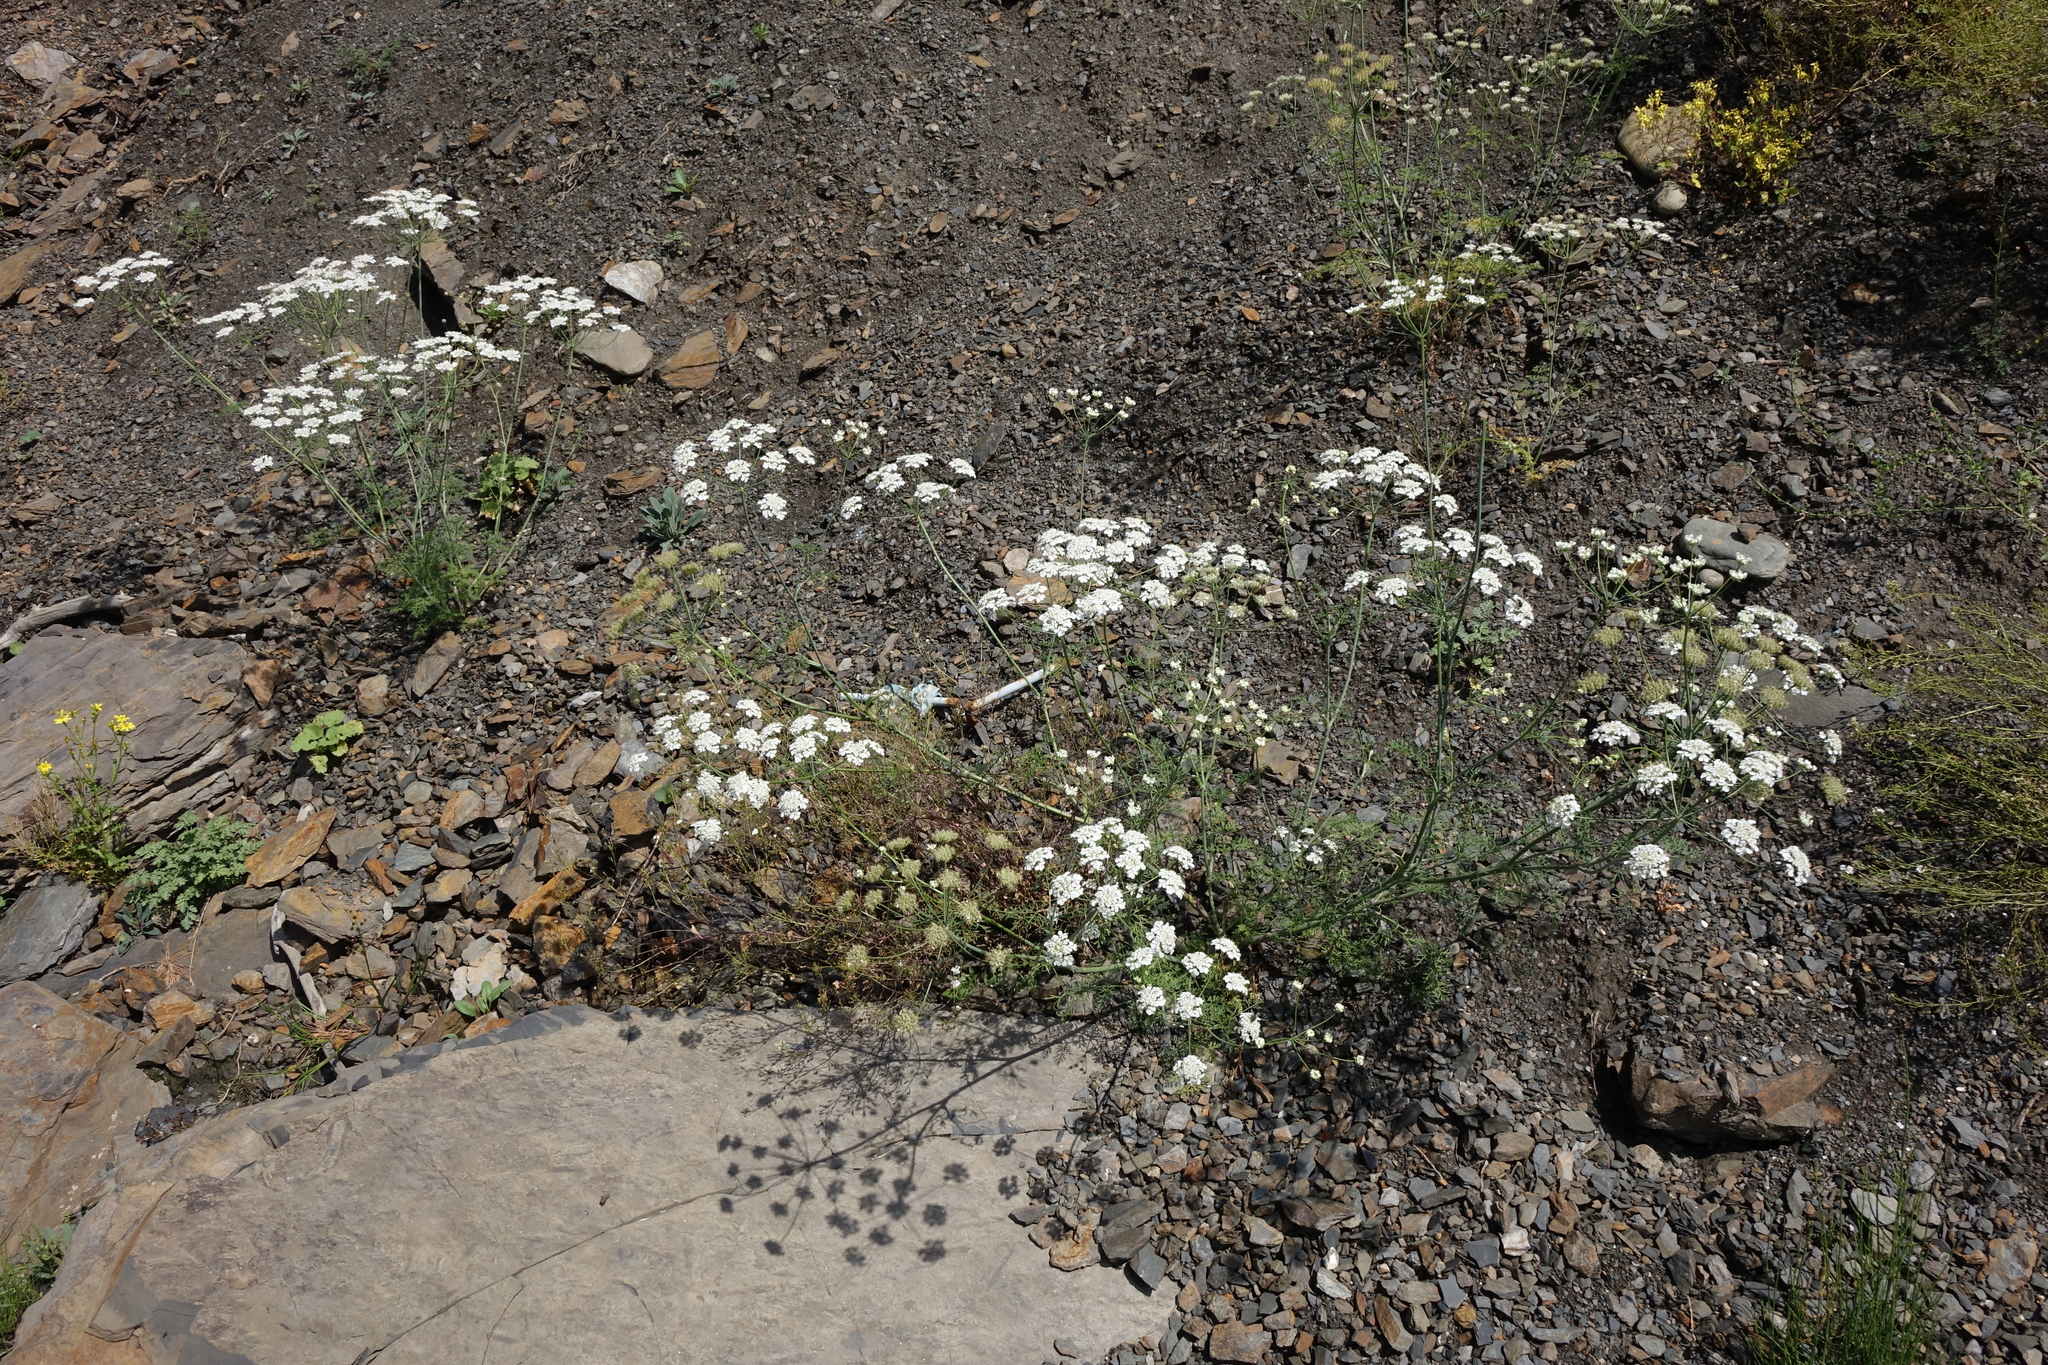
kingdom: Plantae
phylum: Tracheophyta
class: Magnoliopsida
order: Apiales
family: Apiaceae
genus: Astrodaucus
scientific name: Astrodaucus orientalis
